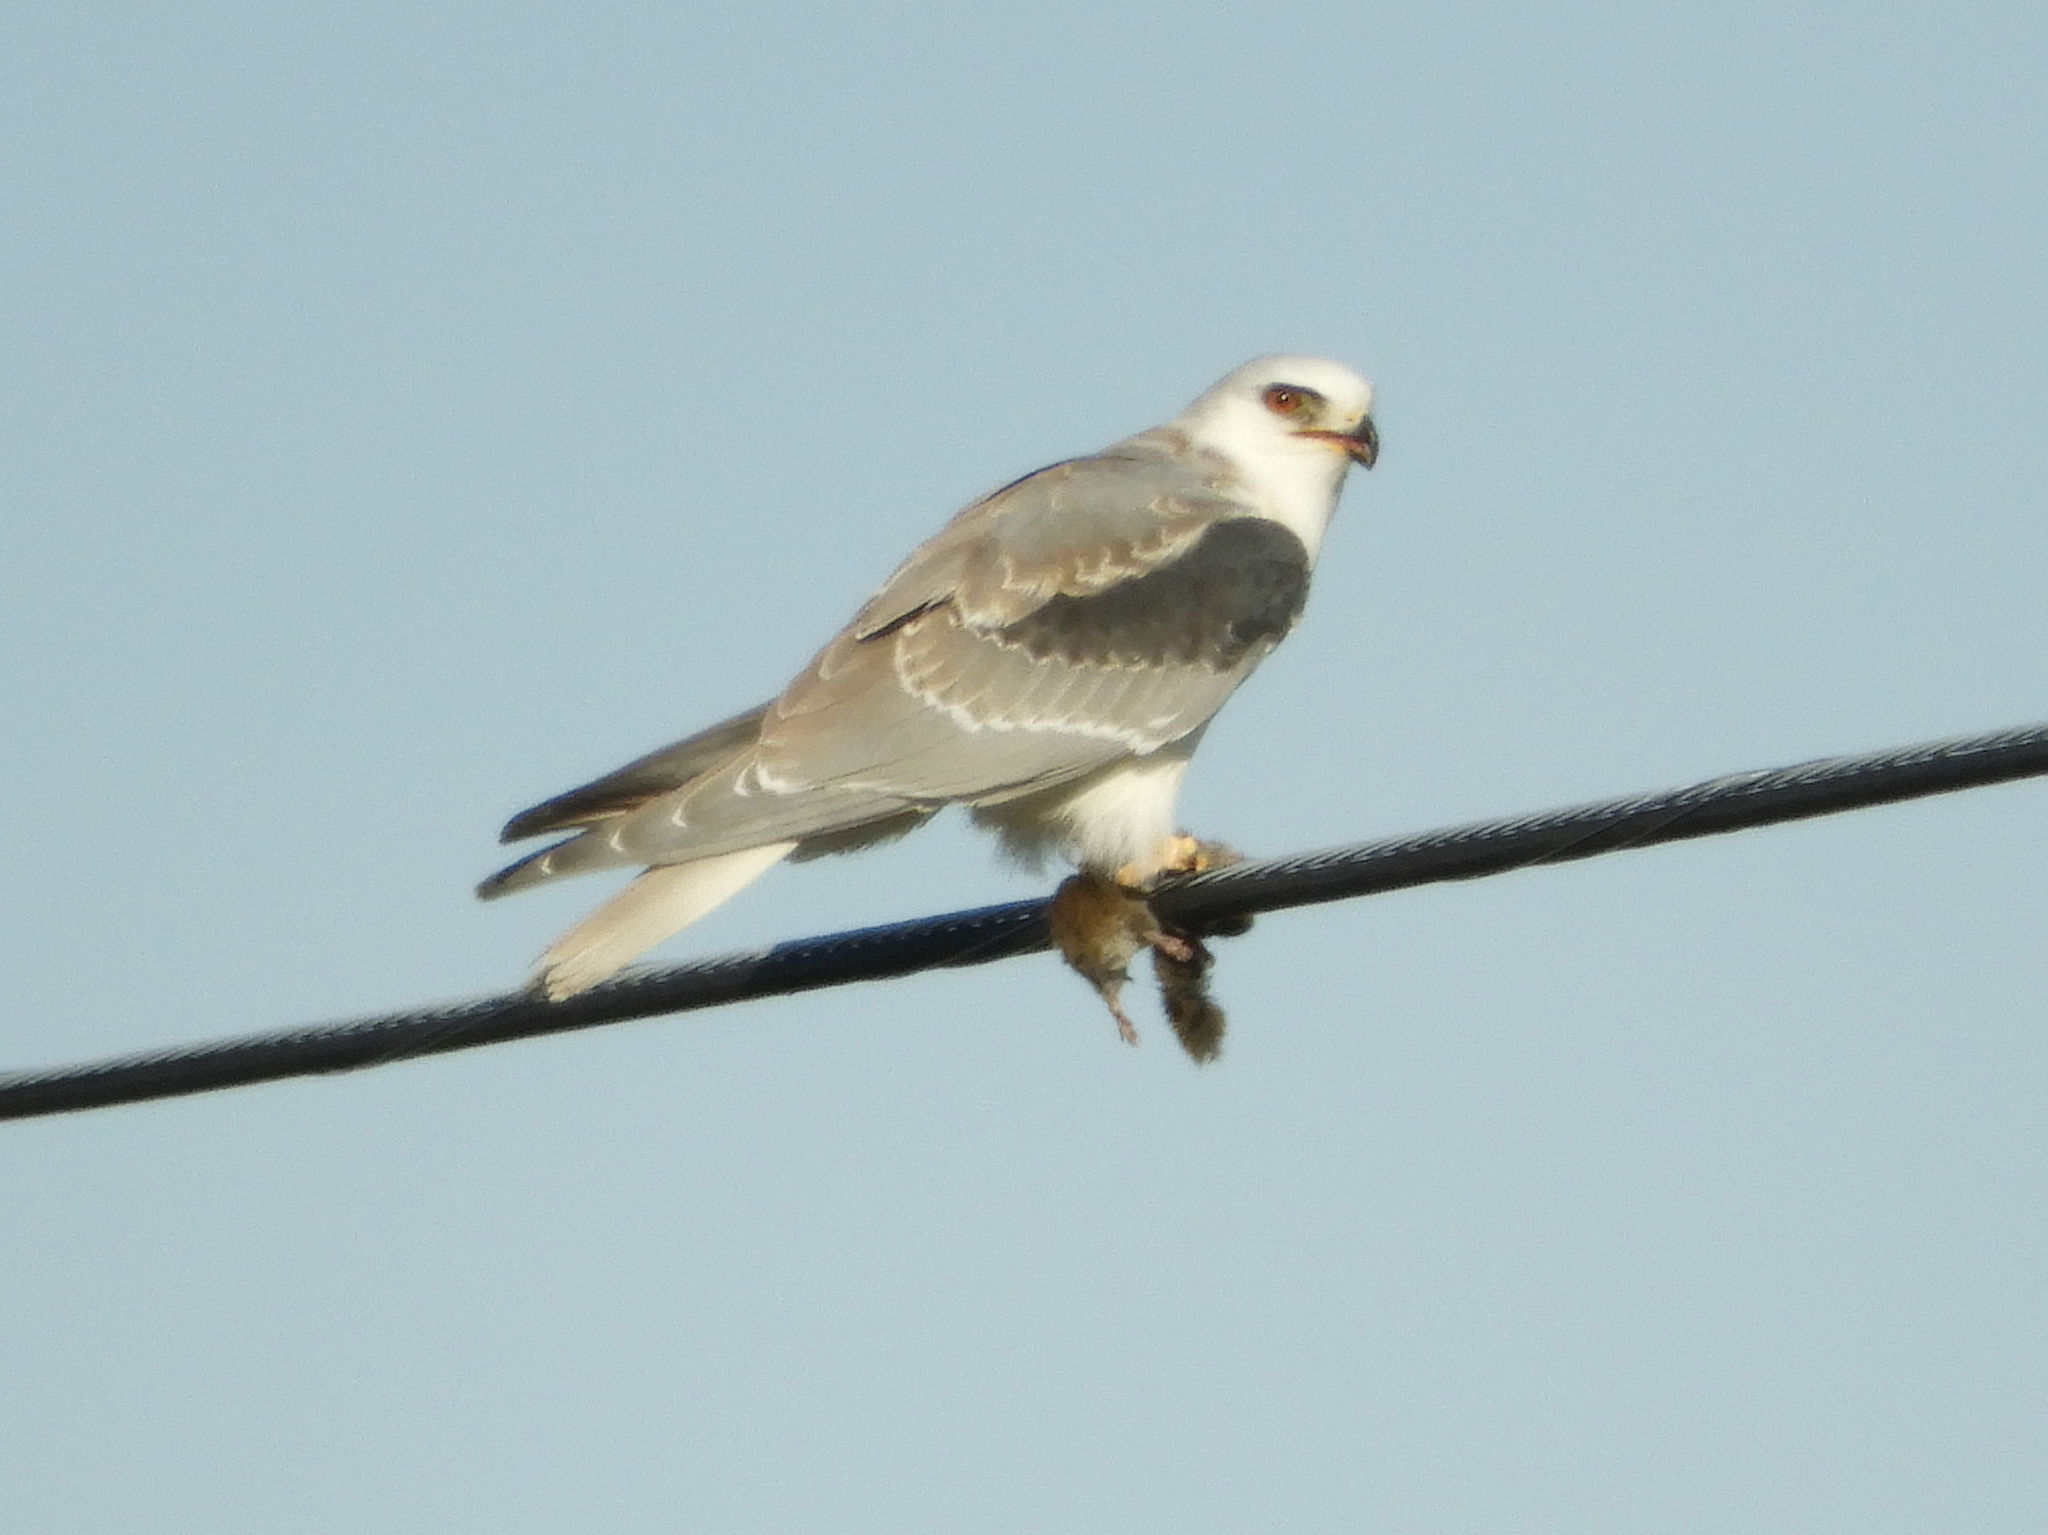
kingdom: Animalia
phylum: Chordata
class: Aves
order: Accipitriformes
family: Accipitridae
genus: Elanus
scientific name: Elanus leucurus
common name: White-tailed kite
